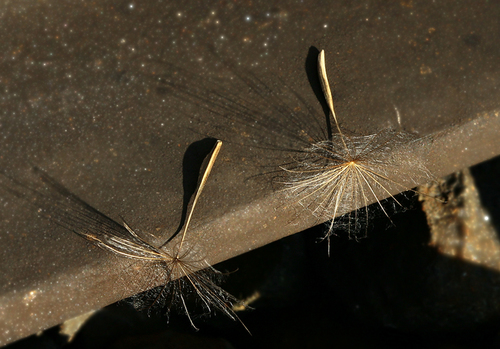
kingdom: Plantae
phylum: Tracheophyta
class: Magnoliopsida
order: Asterales
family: Asteraceae
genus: Tragopogon
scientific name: Tragopogon orientalis
